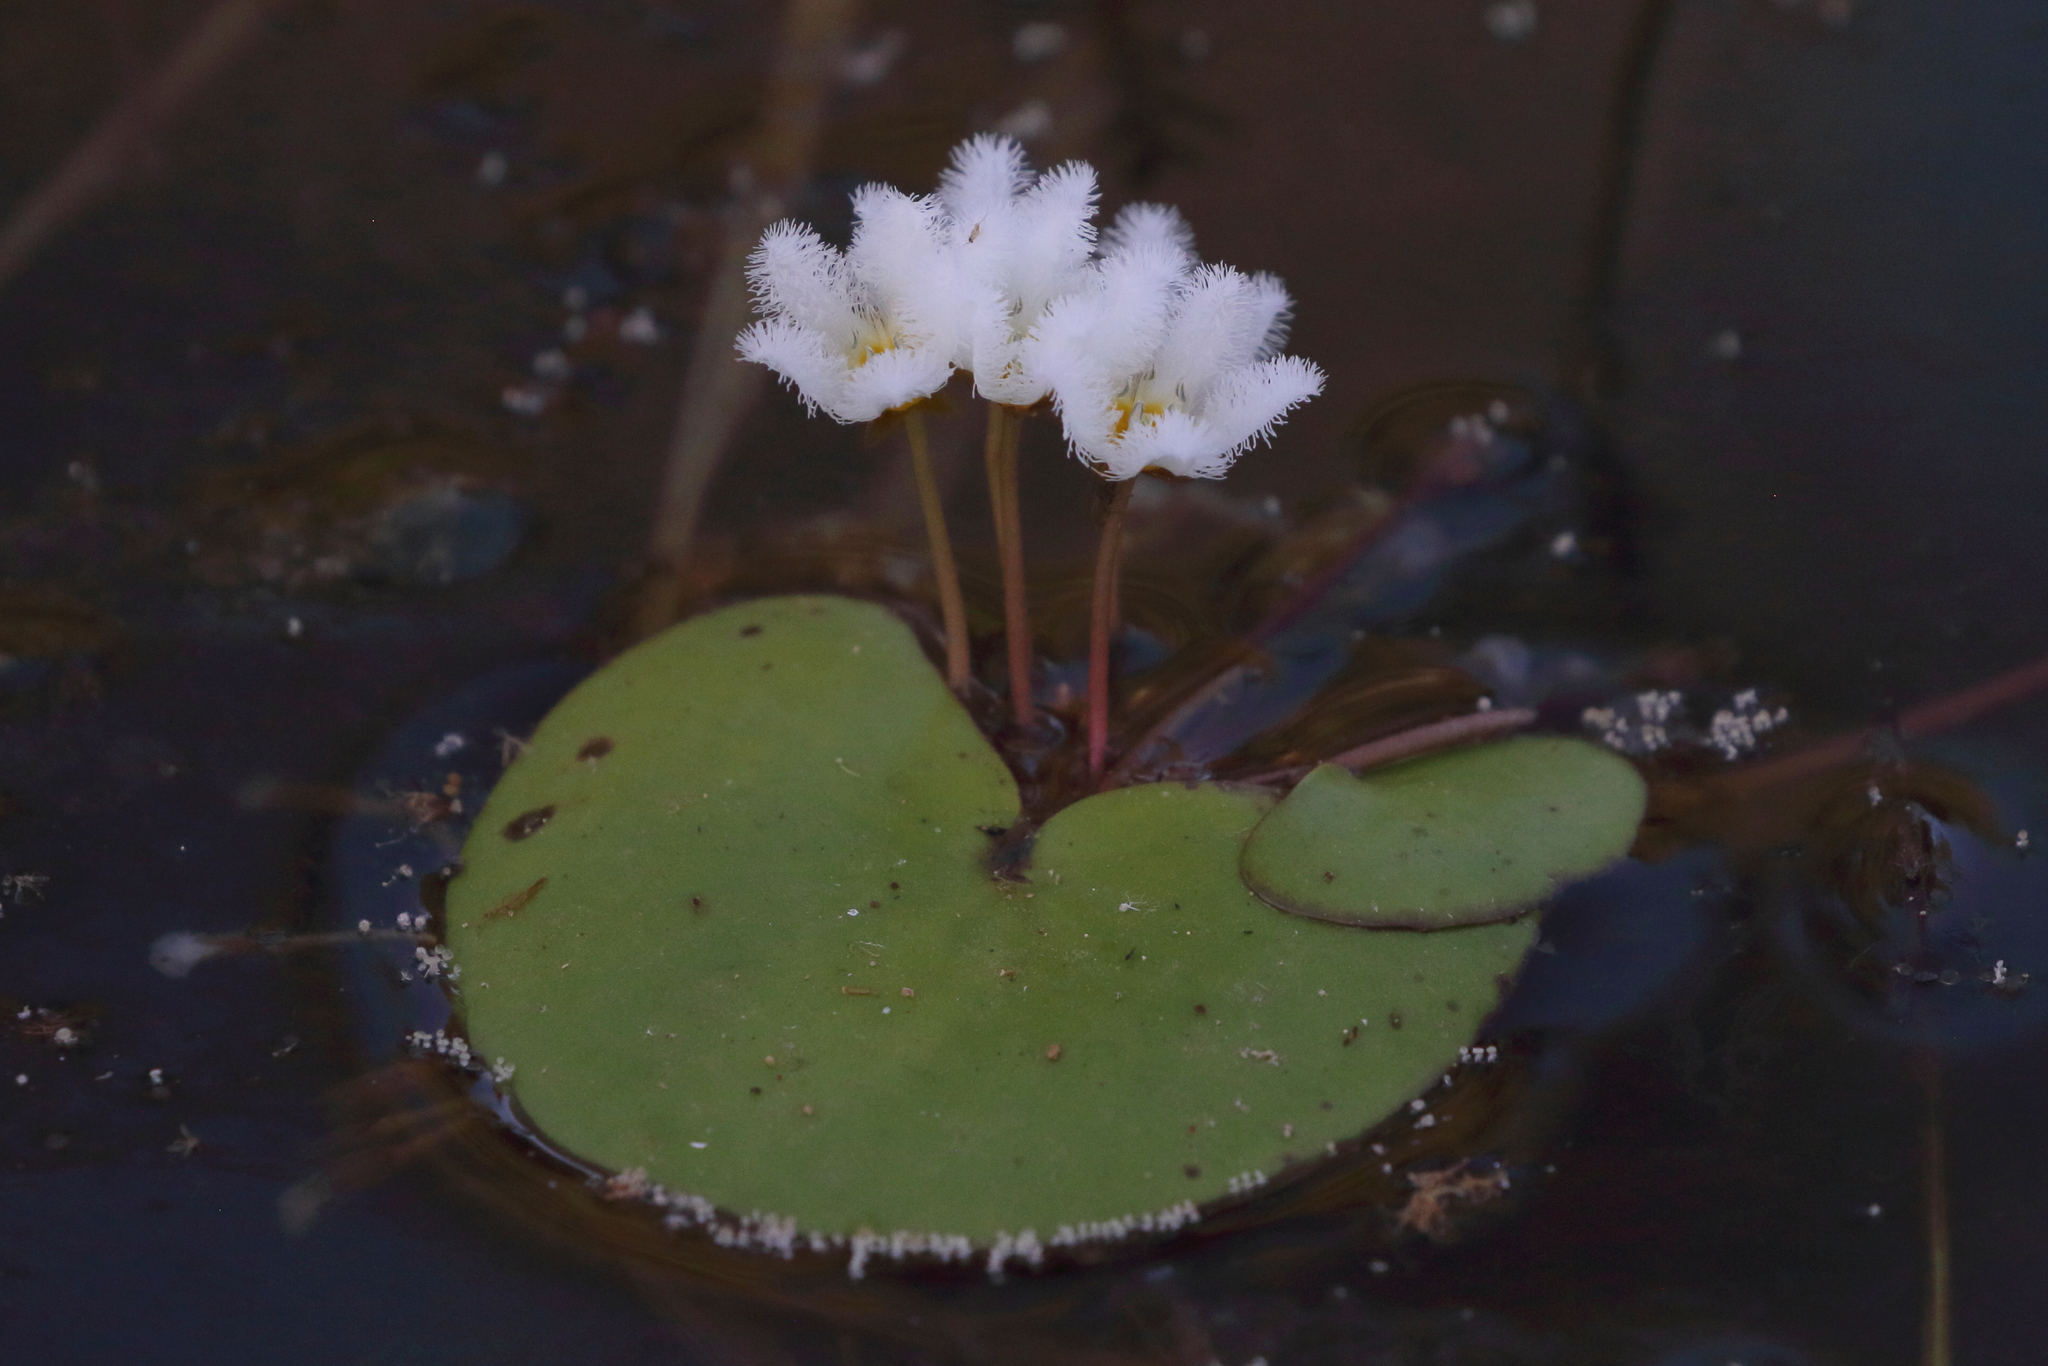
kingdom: Plantae
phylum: Tracheophyta
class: Magnoliopsida
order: Asterales
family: Menyanthaceae
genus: Nymphoides
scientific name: Nymphoides indica
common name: Water-snowflake
